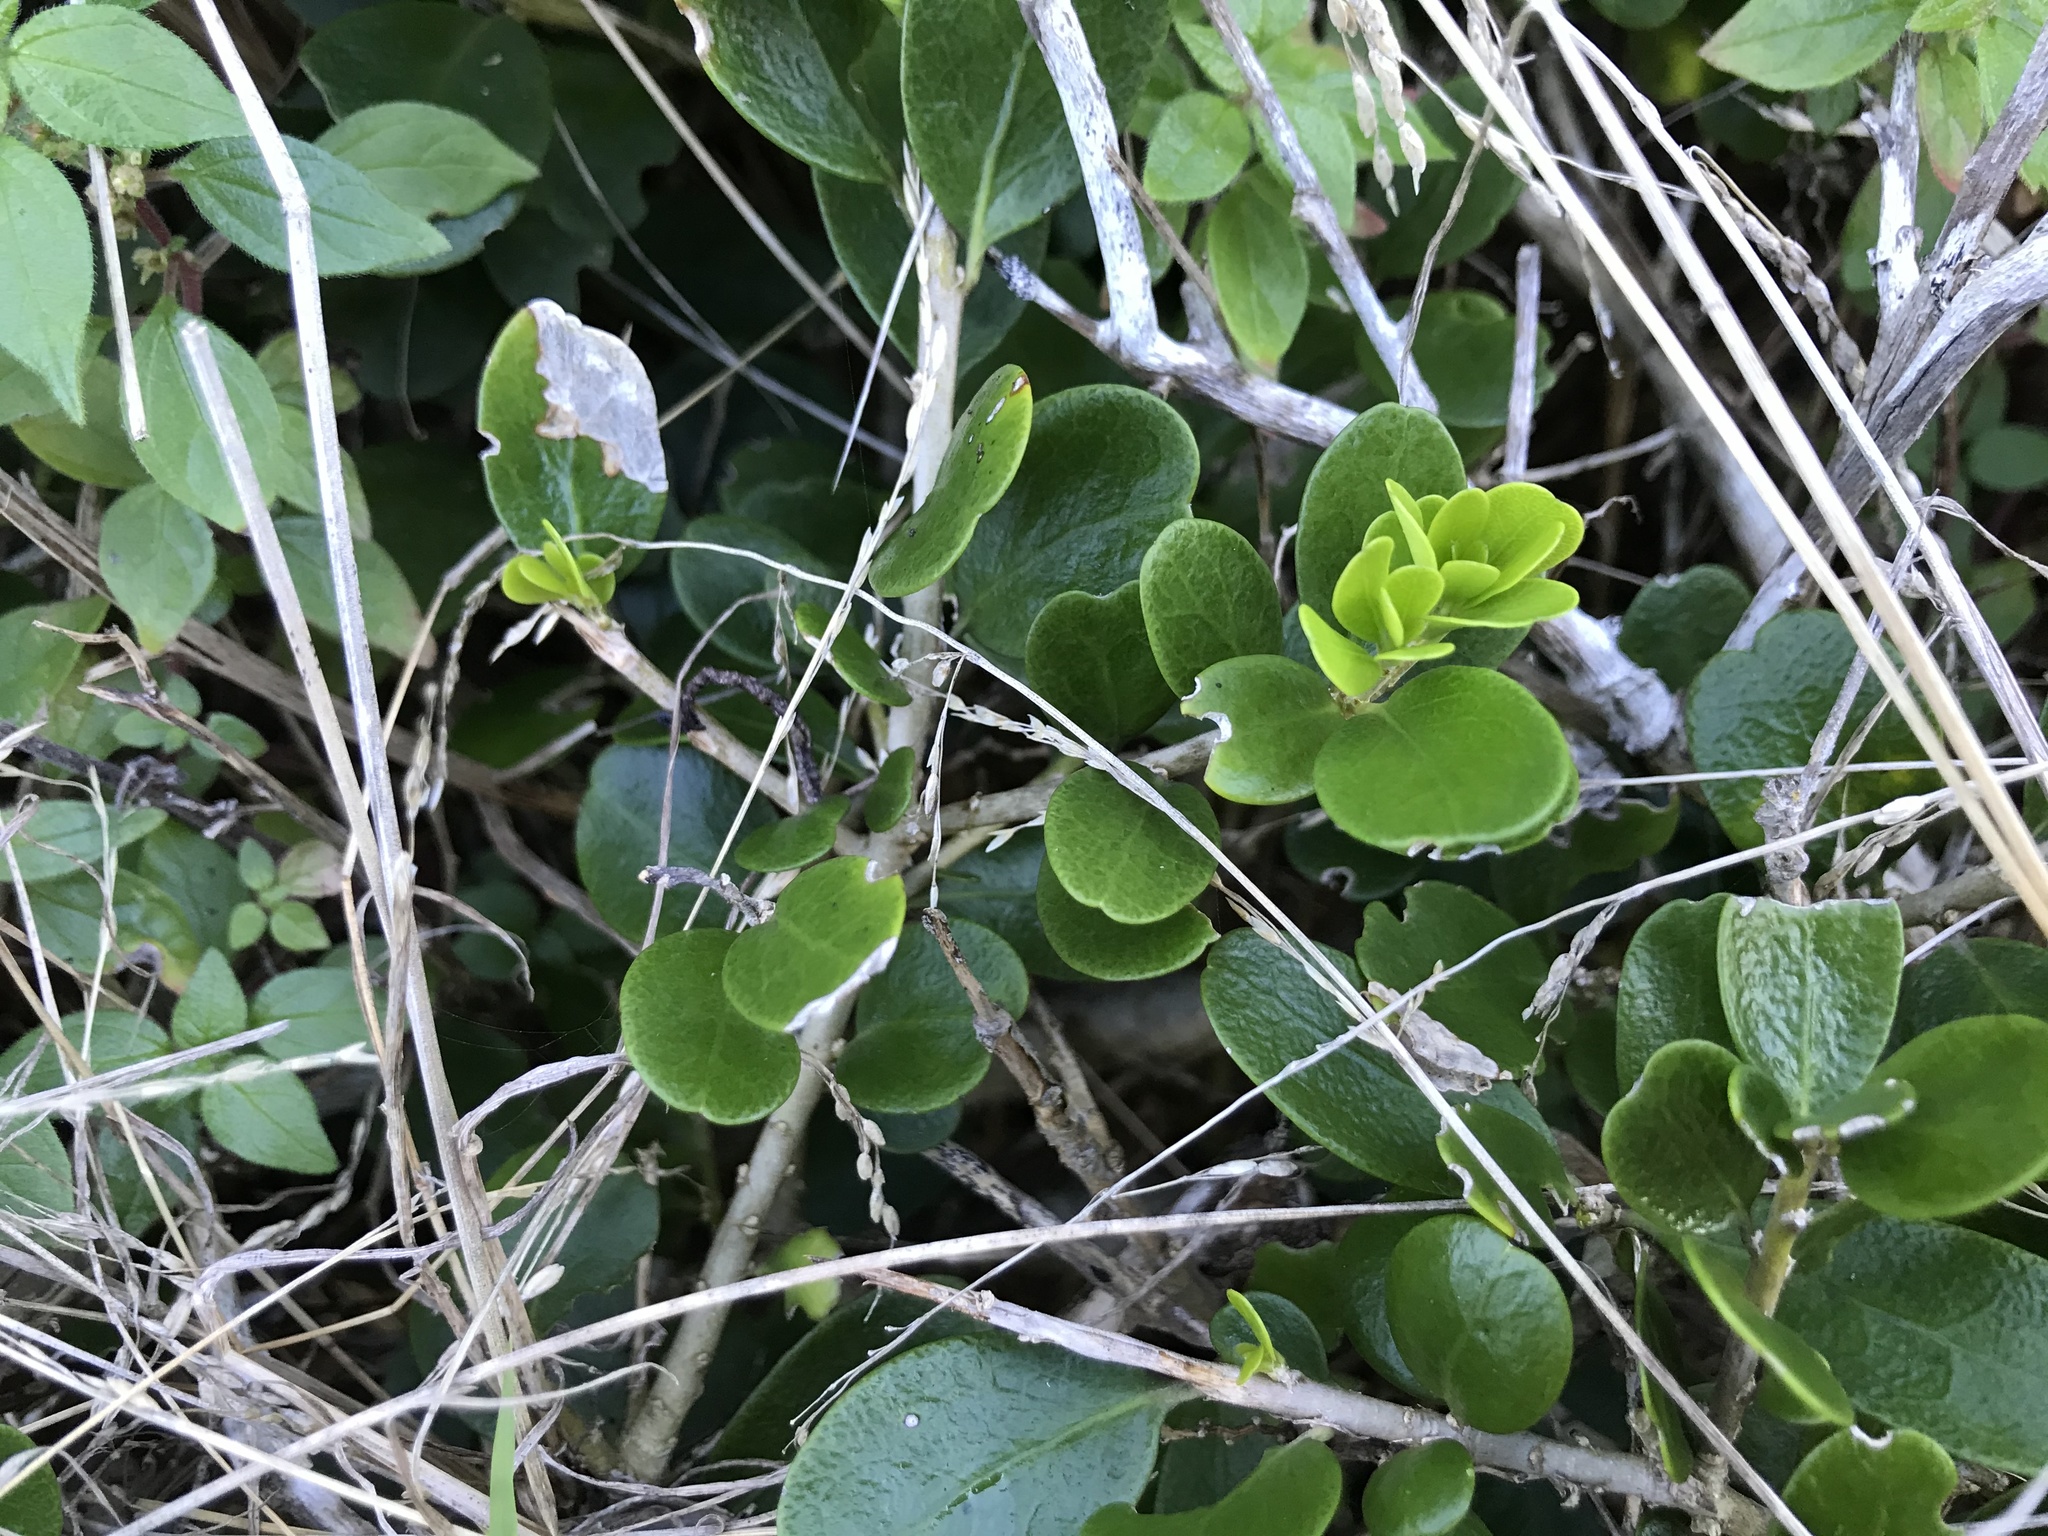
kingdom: Plantae
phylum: Tracheophyta
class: Magnoliopsida
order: Malpighiales
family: Violaceae
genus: Melicytus
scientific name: Melicytus orarius
